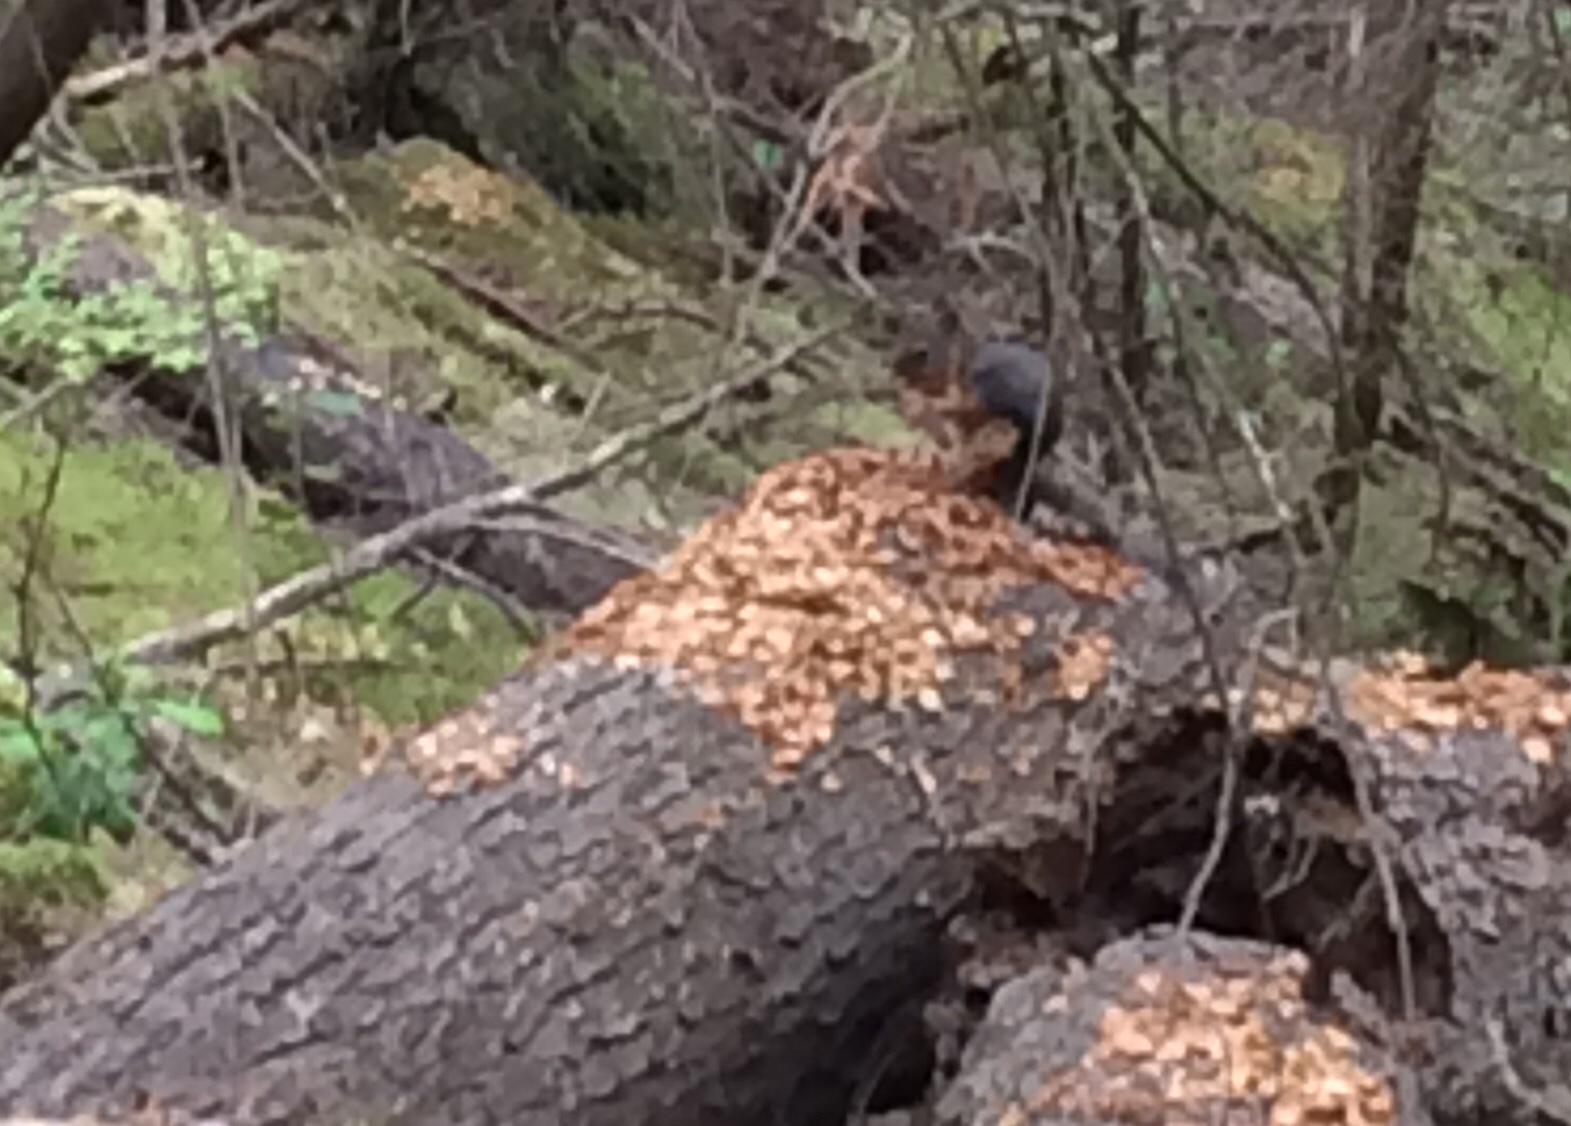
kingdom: Animalia
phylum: Chordata
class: Mammalia
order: Rodentia
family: Sciuridae
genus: Tamiasciurus
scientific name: Tamiasciurus douglasii
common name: Douglas's squirrel
